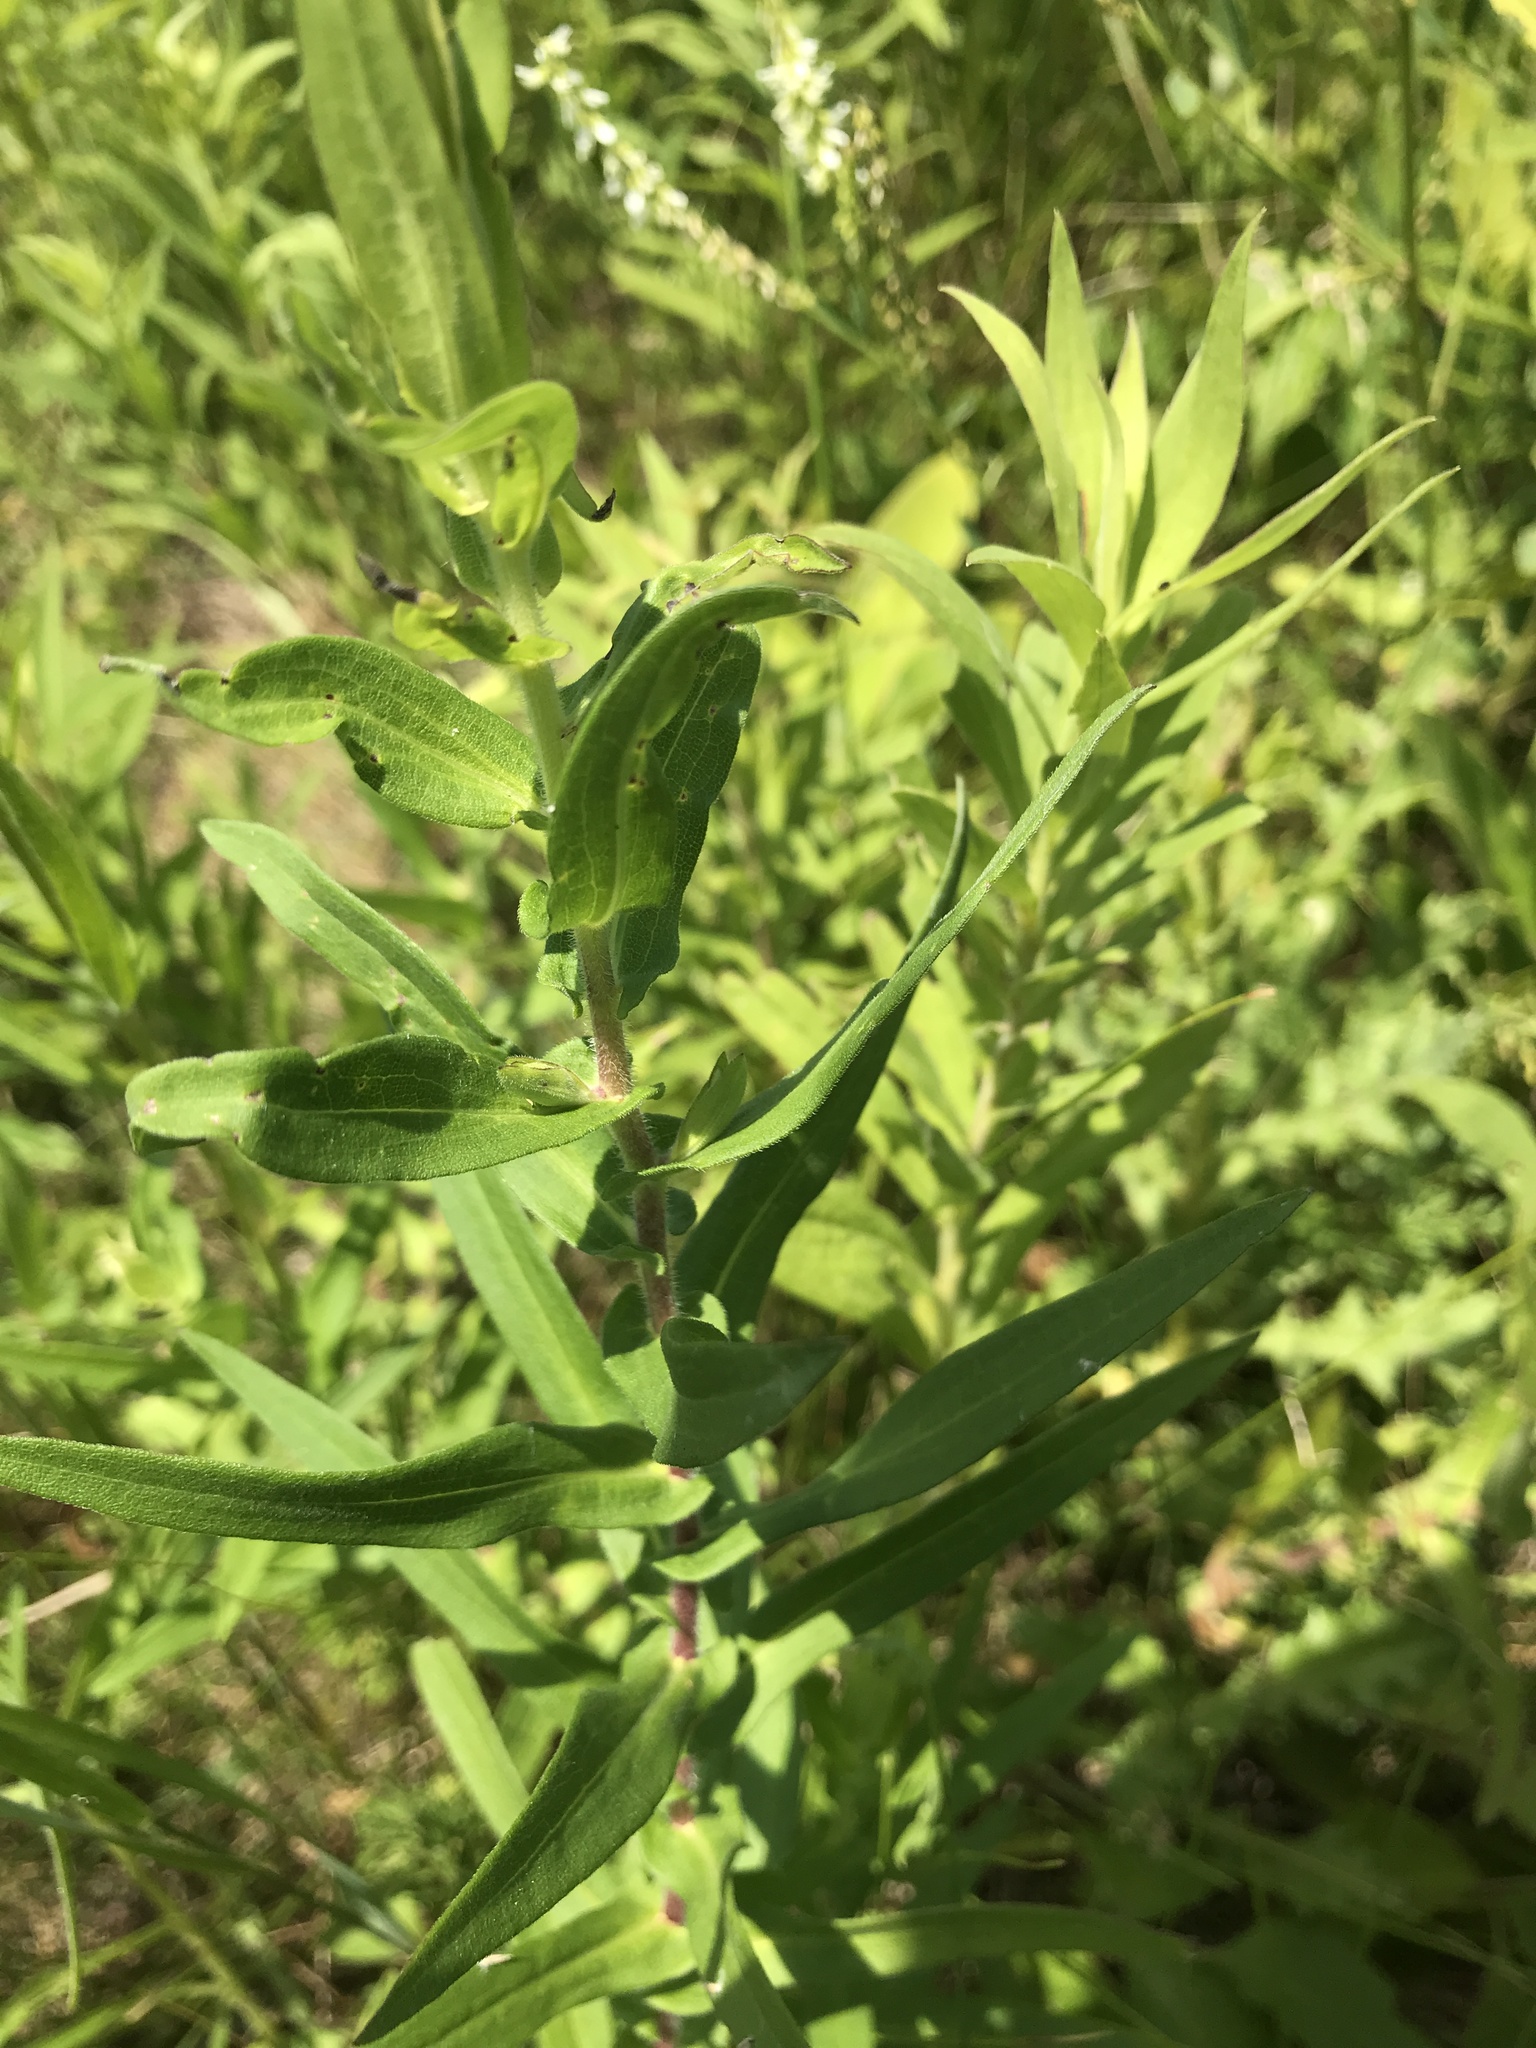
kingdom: Plantae
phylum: Tracheophyta
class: Magnoliopsida
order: Asterales
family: Asteraceae
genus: Symphyotrichum
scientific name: Symphyotrichum novae-angliae
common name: Michaelmas daisy
